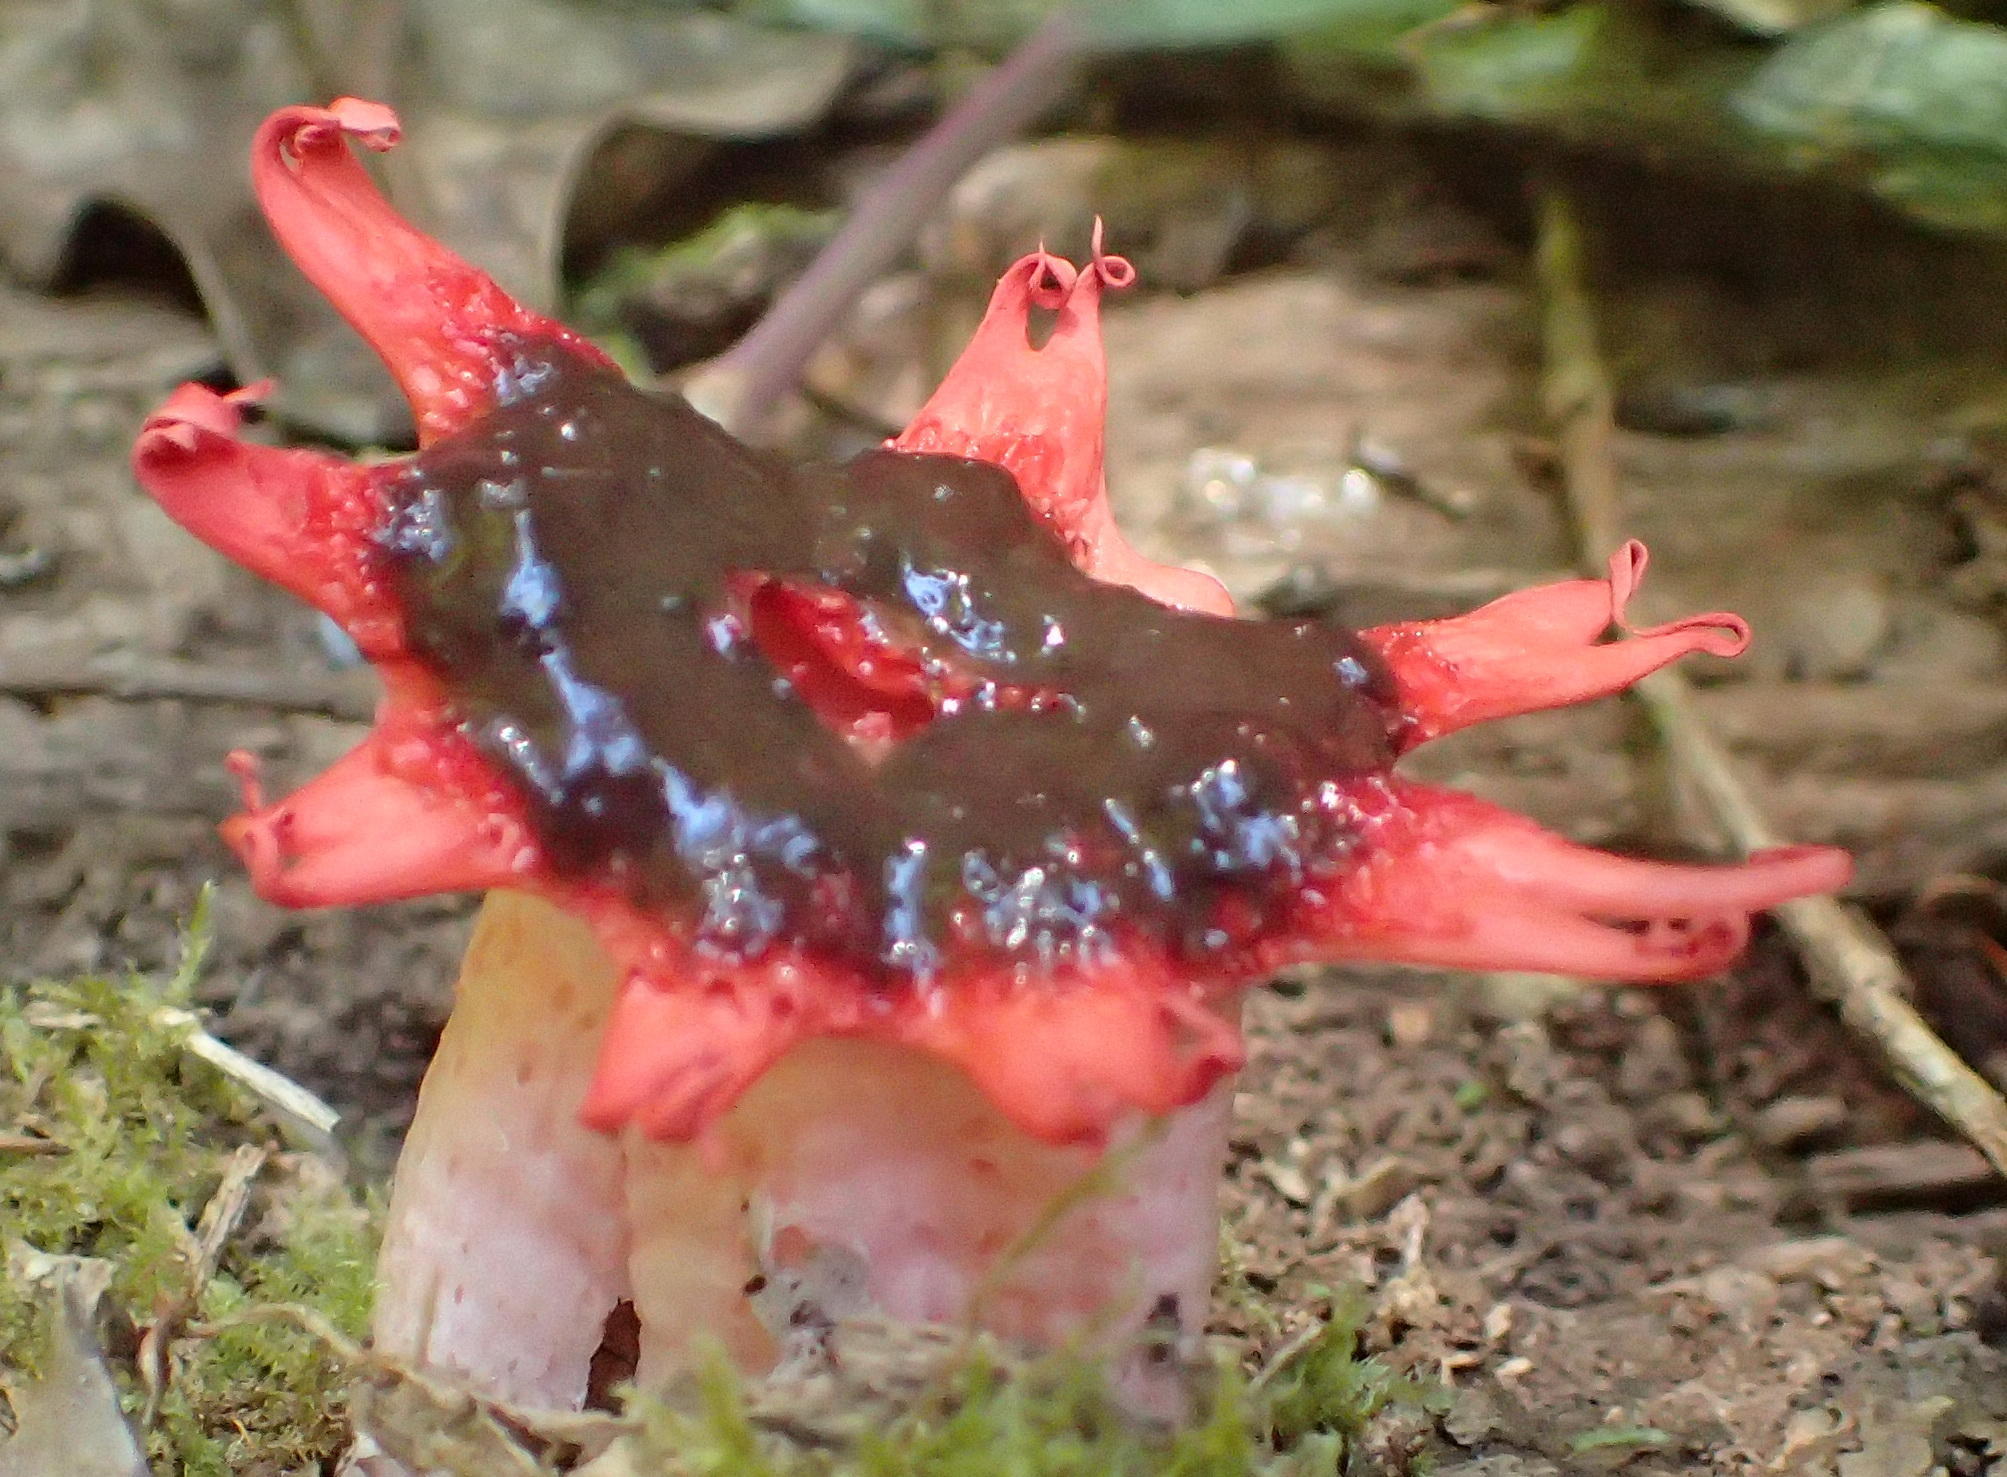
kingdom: Fungi
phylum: Basidiomycota
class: Agaricomycetes
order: Phallales
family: Phallaceae
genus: Aseroe
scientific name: Aseroe rubra
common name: Starfish fungus
